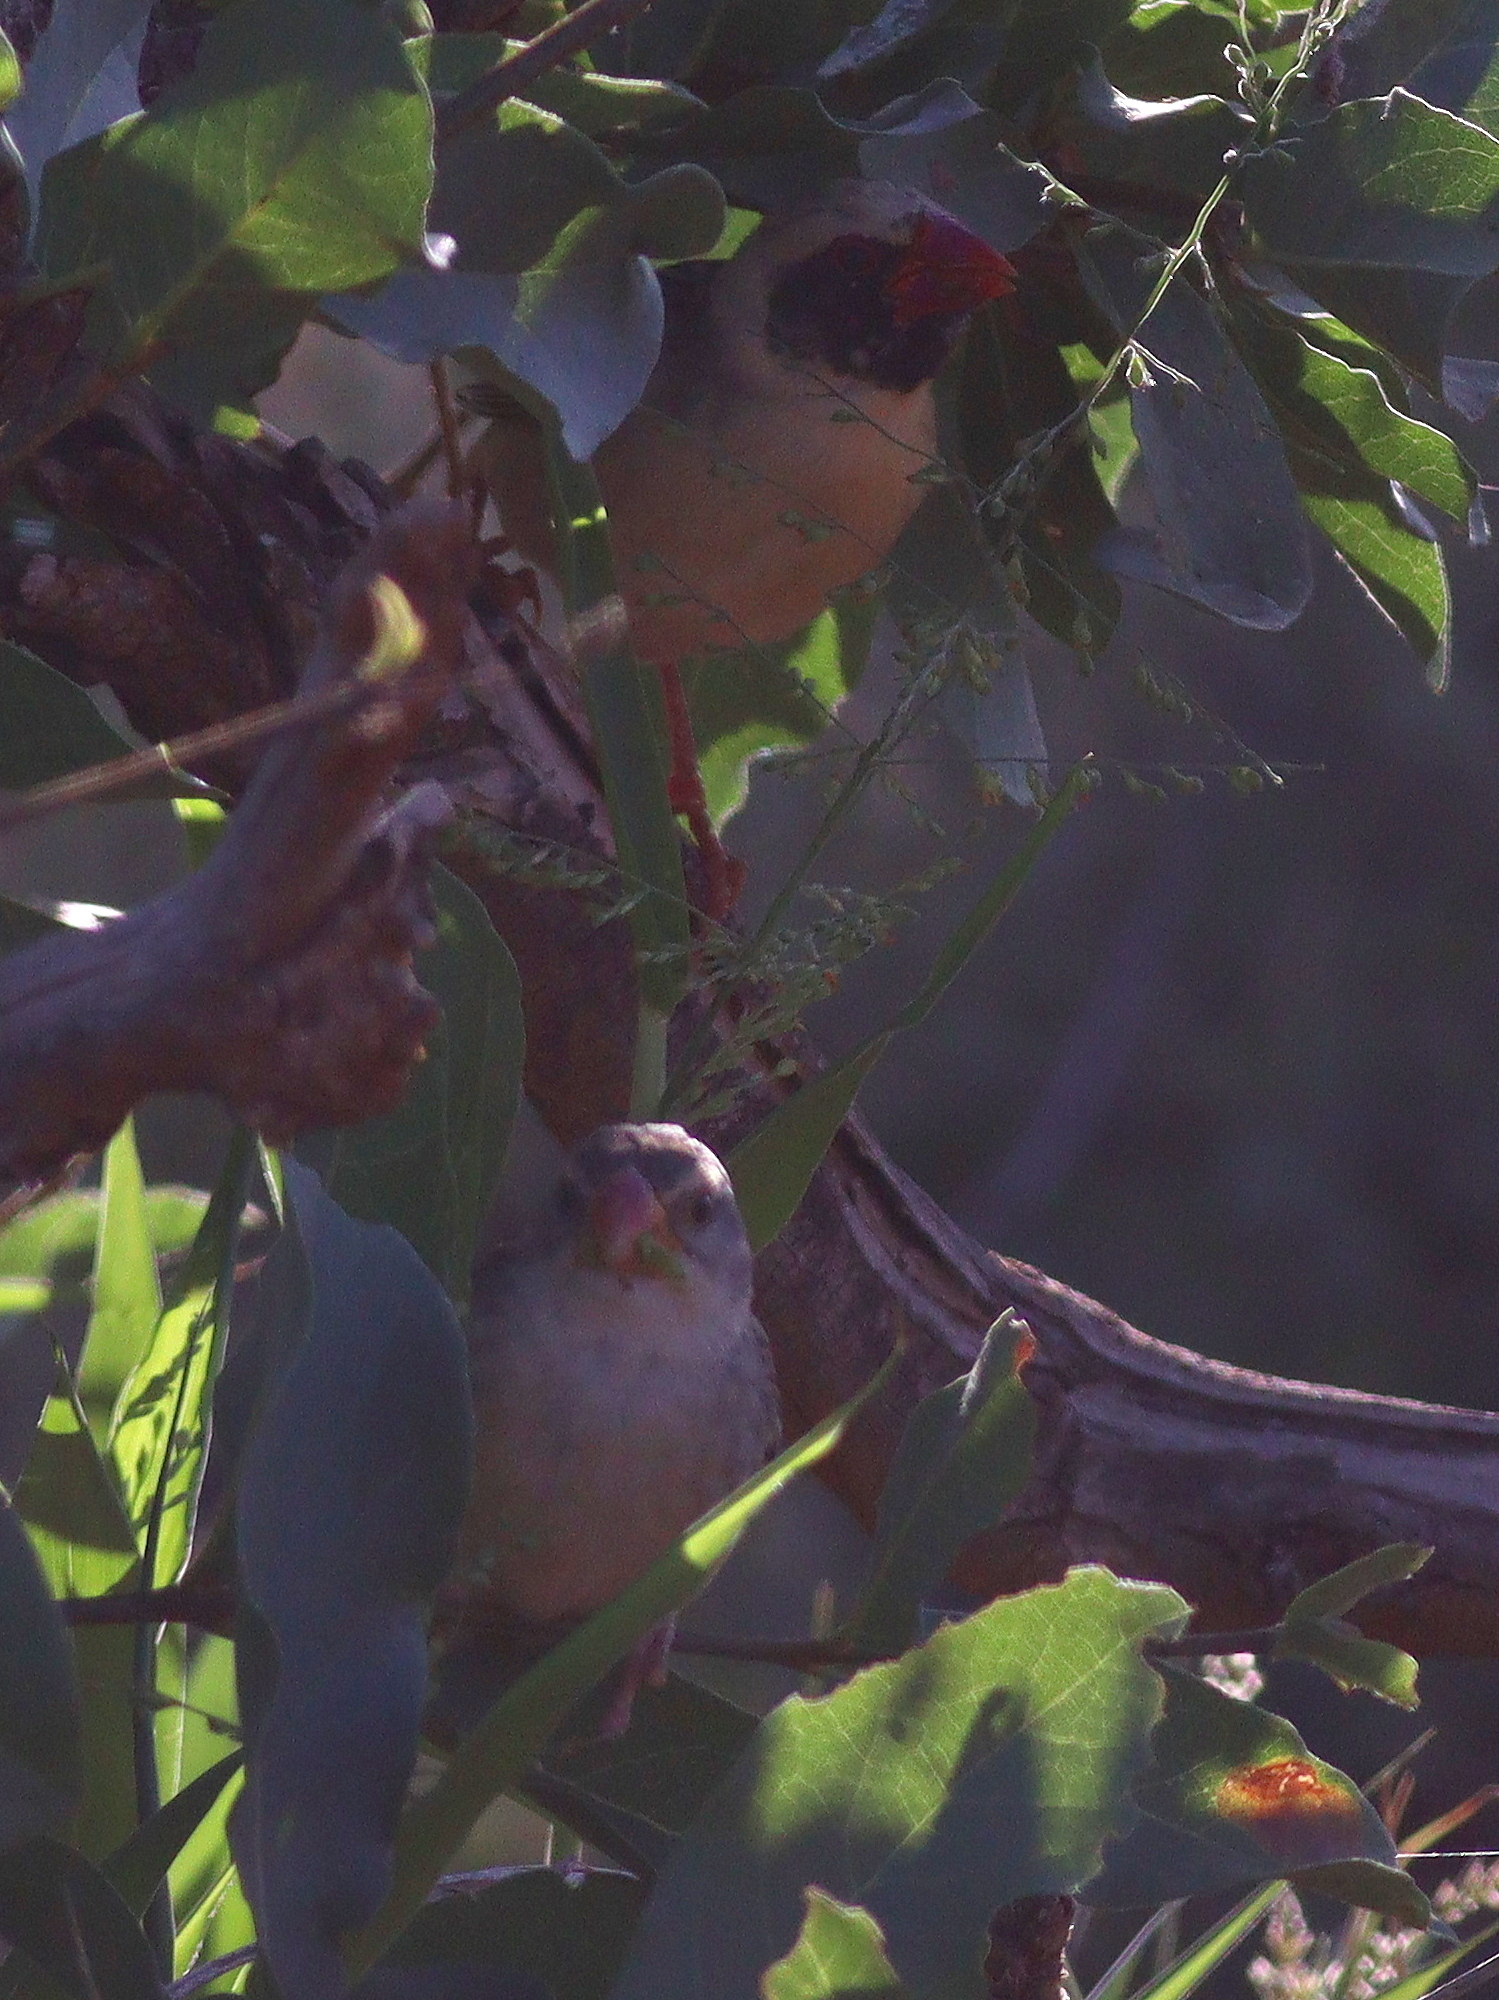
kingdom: Animalia
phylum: Chordata
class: Aves
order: Passeriformes
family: Ploceidae
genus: Quelea
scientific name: Quelea quelea
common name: Red-billed quelea
